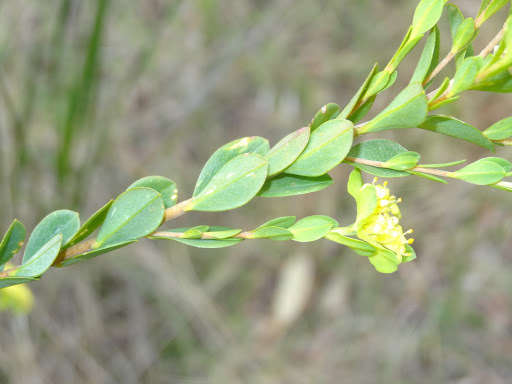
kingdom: Plantae
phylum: Tracheophyta
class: Magnoliopsida
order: Malvales
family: Thymelaeaceae
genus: Pimelea
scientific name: Pimelea flava
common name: Yellow riceflower
